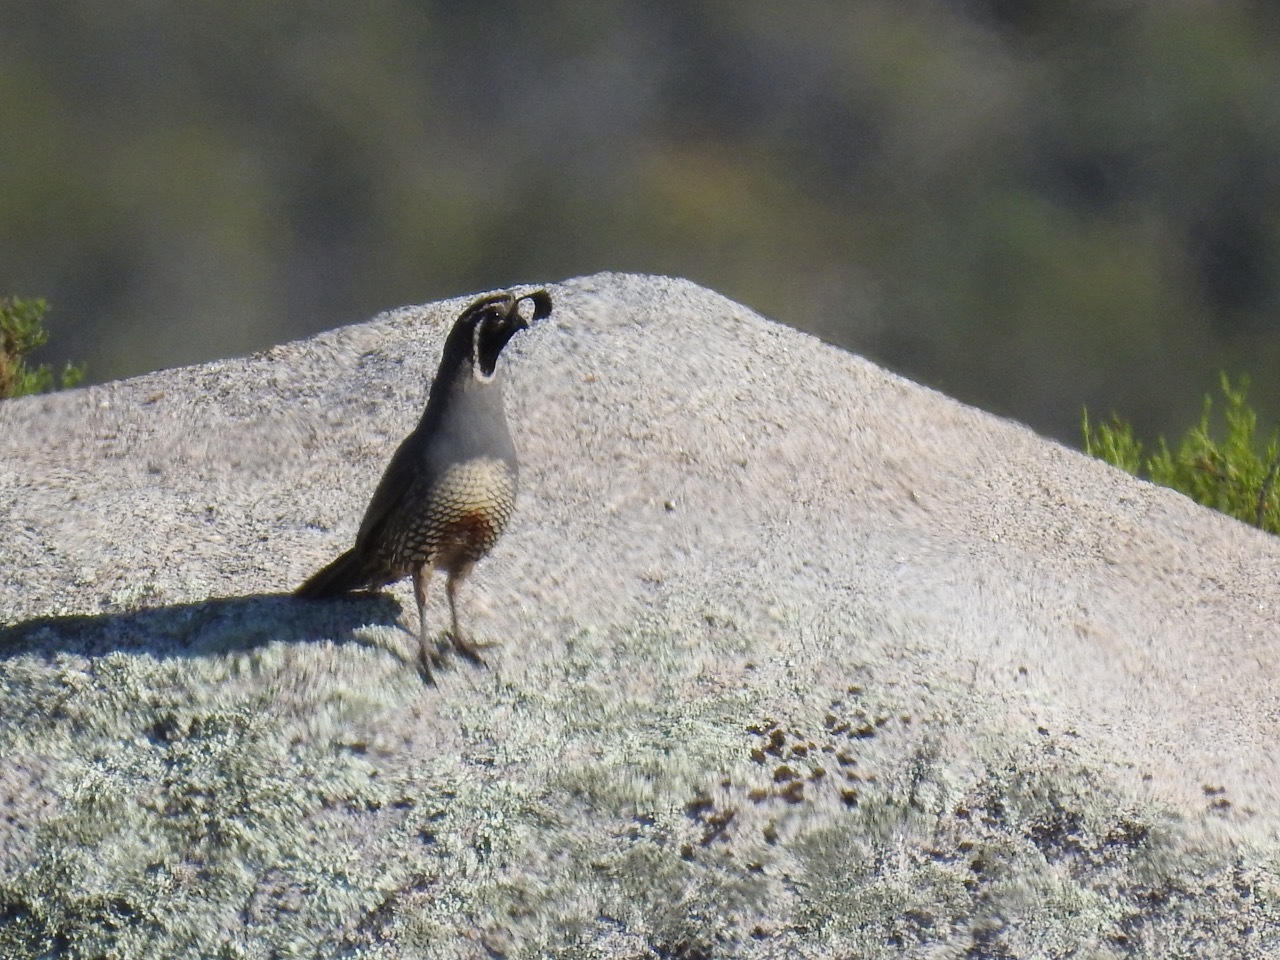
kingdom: Animalia
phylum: Chordata
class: Aves
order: Galliformes
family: Odontophoridae
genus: Callipepla
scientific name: Callipepla californica
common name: California quail
